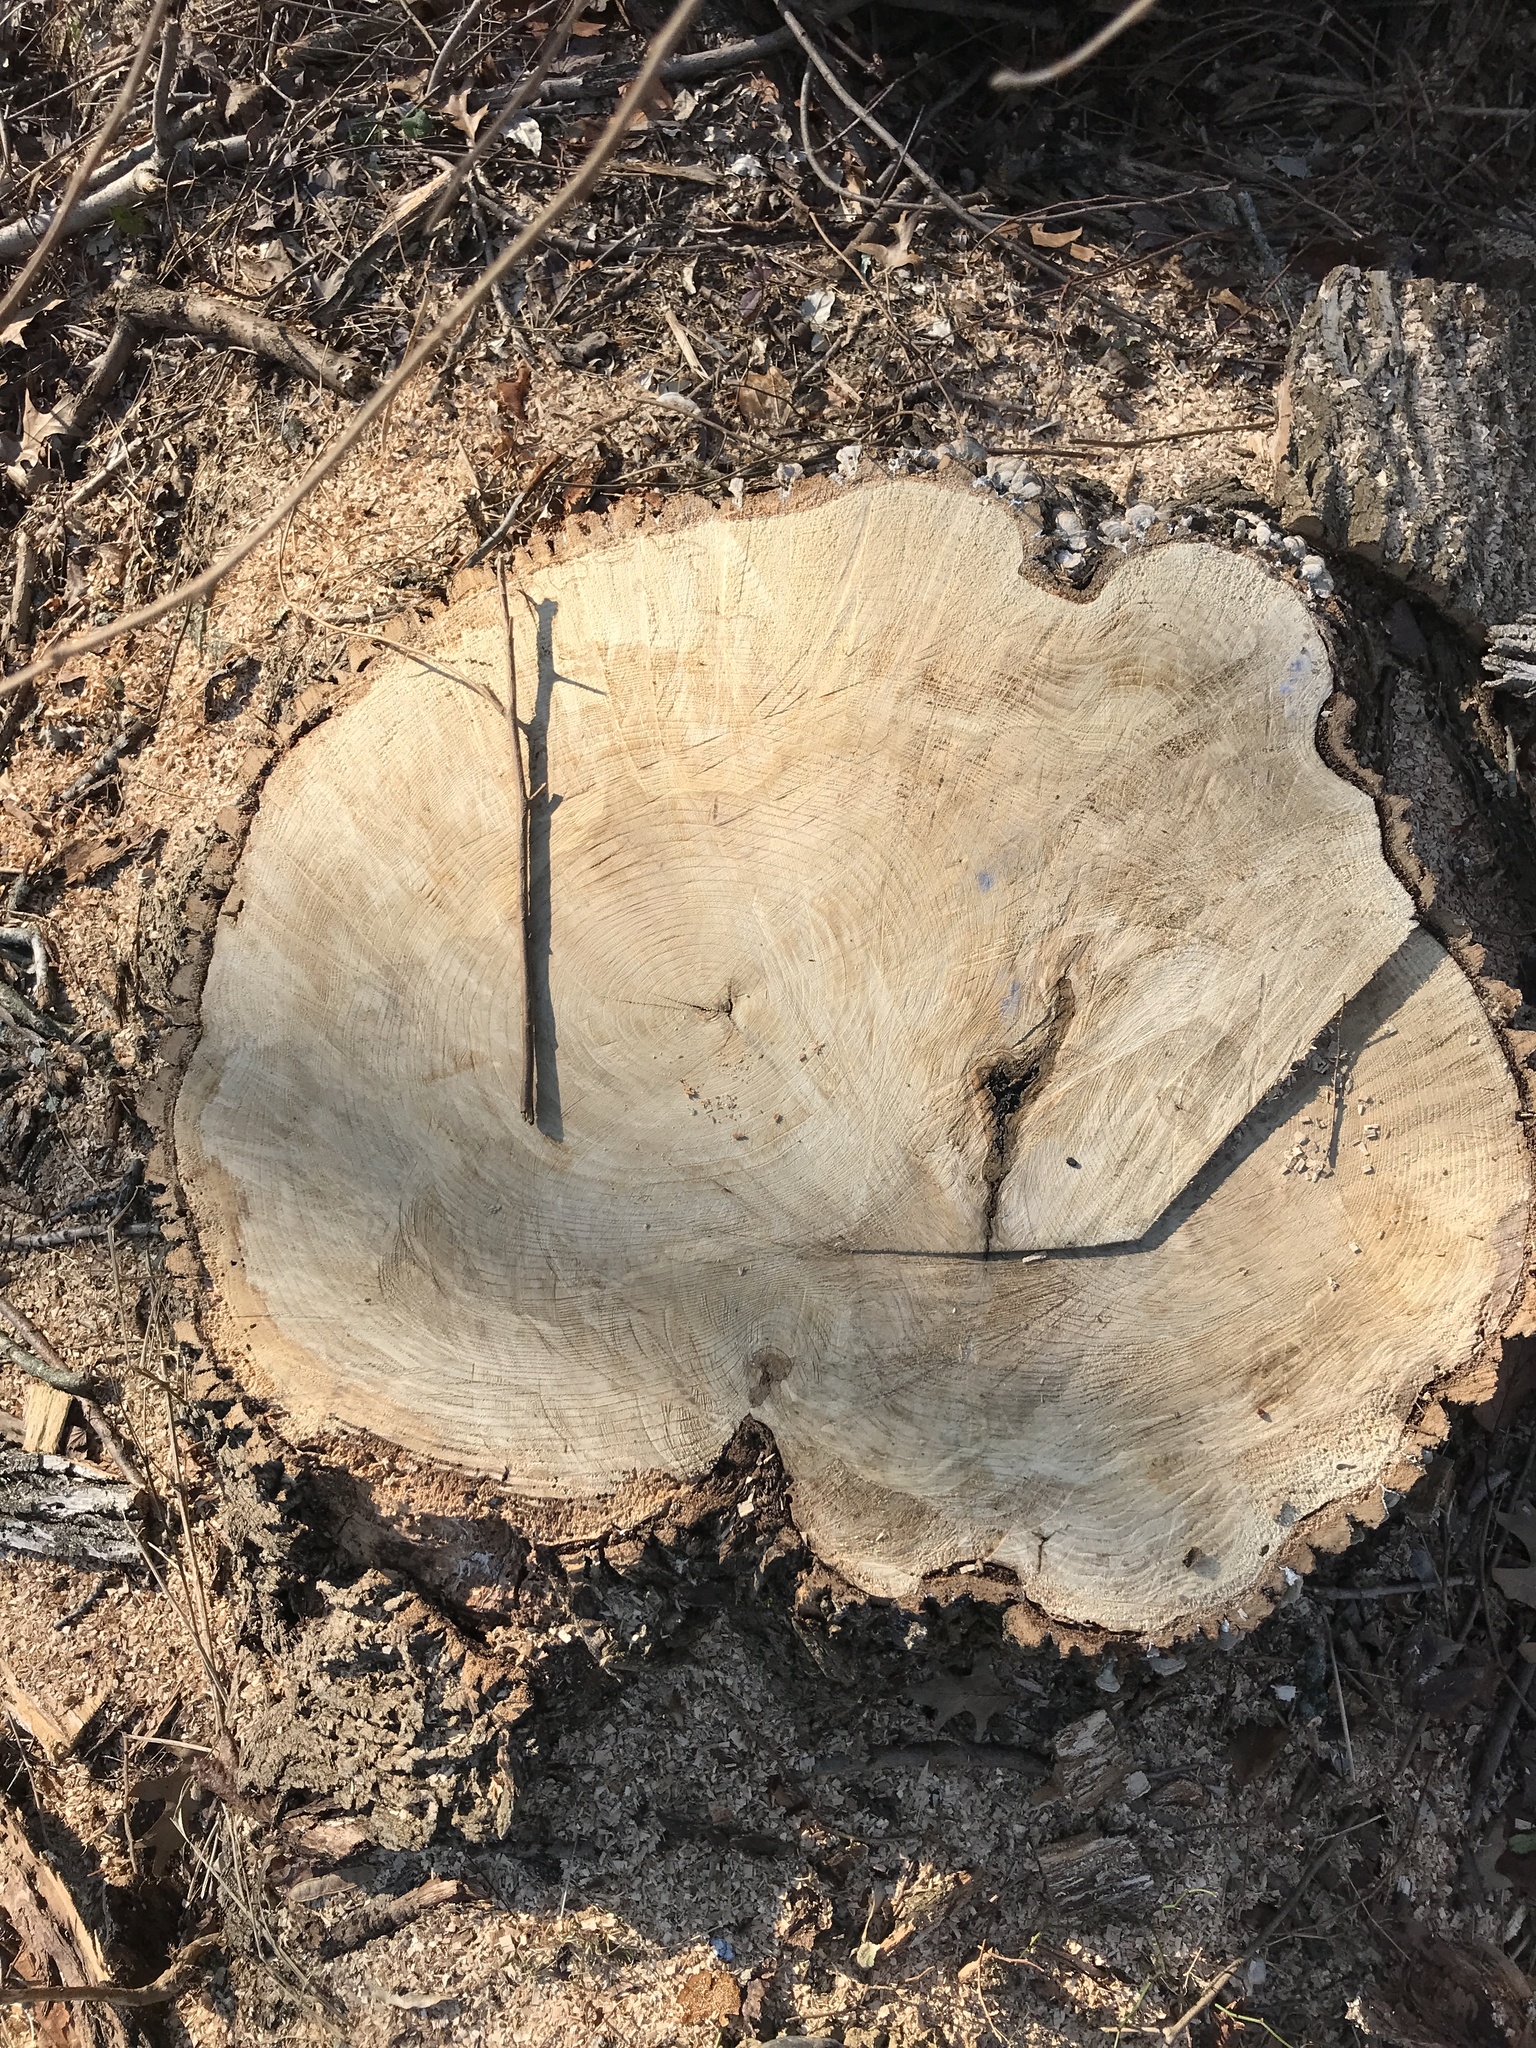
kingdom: Animalia
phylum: Arthropoda
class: Insecta
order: Coleoptera
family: Buprestidae
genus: Agrilus
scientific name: Agrilus planipennis
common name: Emerald ash borer
